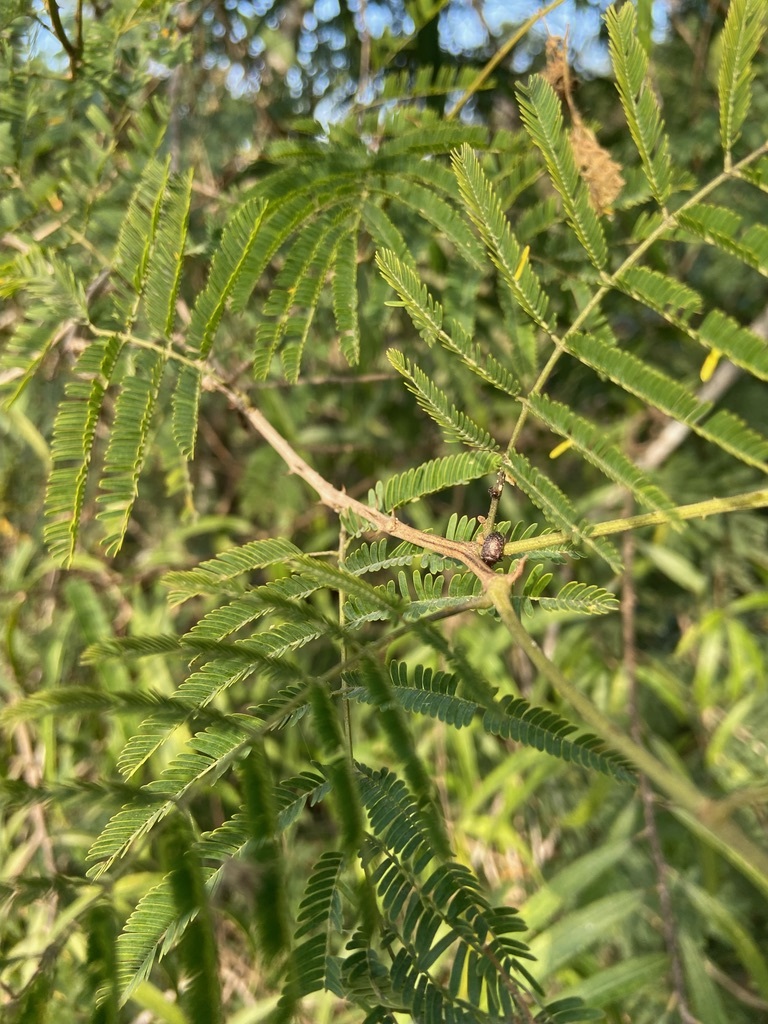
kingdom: Plantae
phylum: Tracheophyta
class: Magnoliopsida
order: Fabales
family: Fabaceae
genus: Senegalia
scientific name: Senegalia bonariensis
